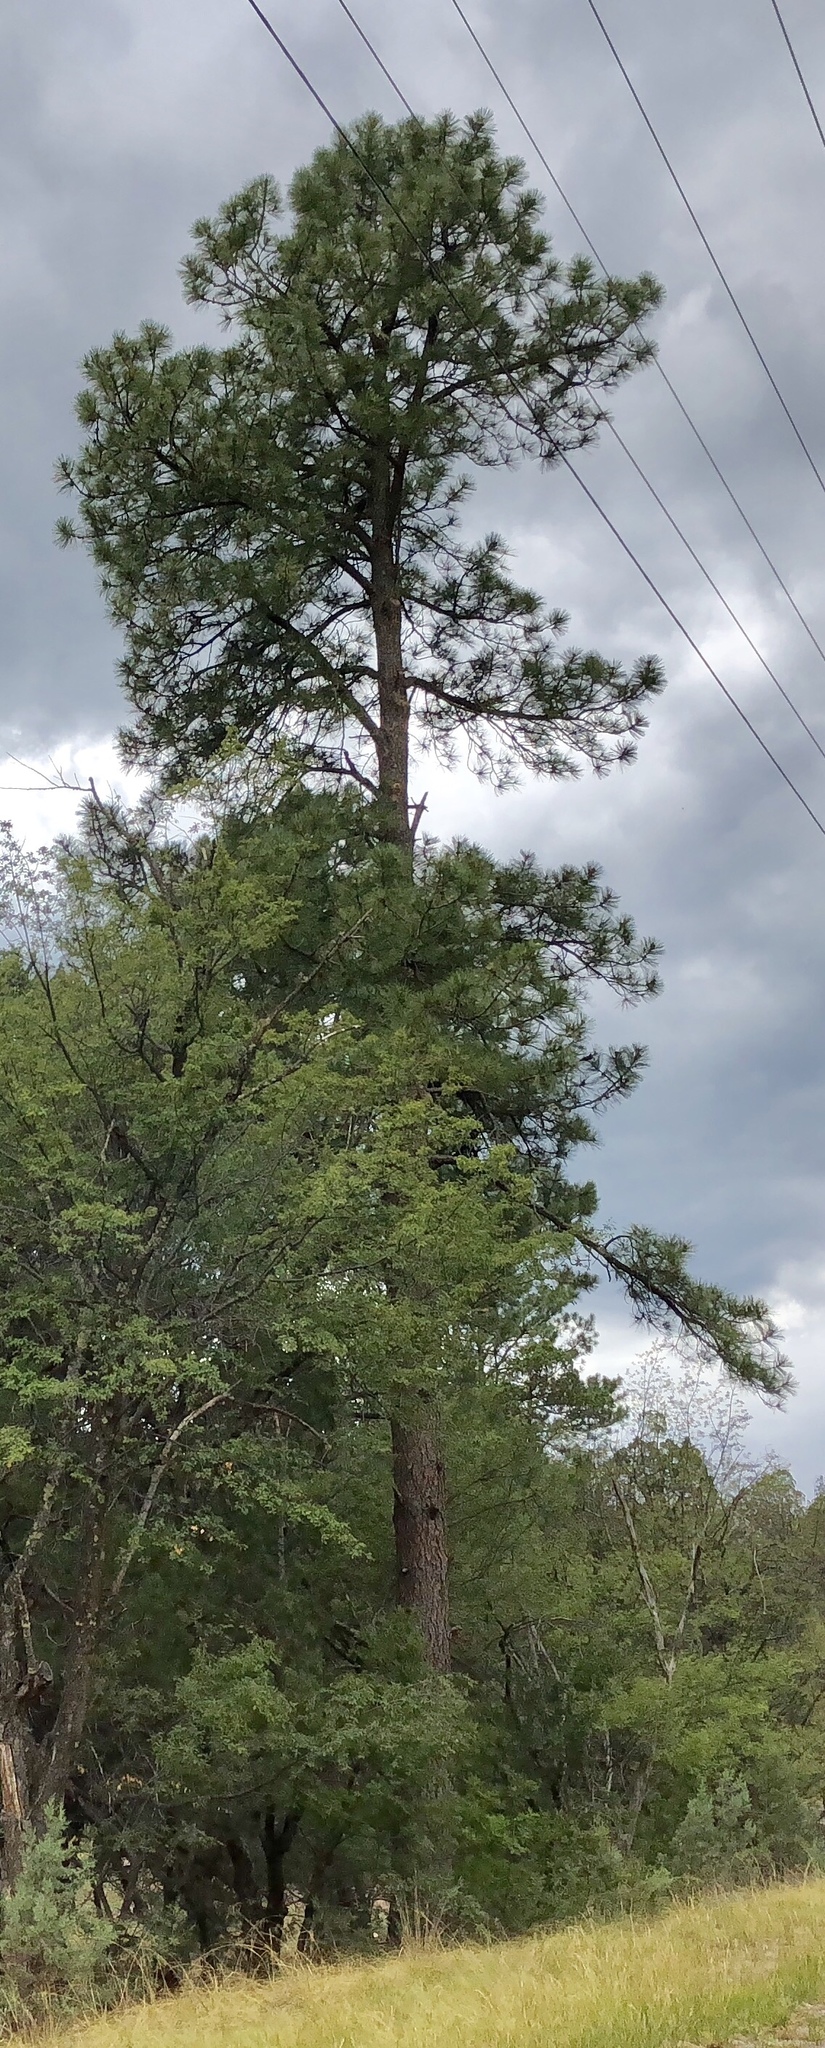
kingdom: Plantae
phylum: Tracheophyta
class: Pinopsida
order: Pinales
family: Pinaceae
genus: Pinus
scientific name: Pinus ponderosa
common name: Western yellow-pine
